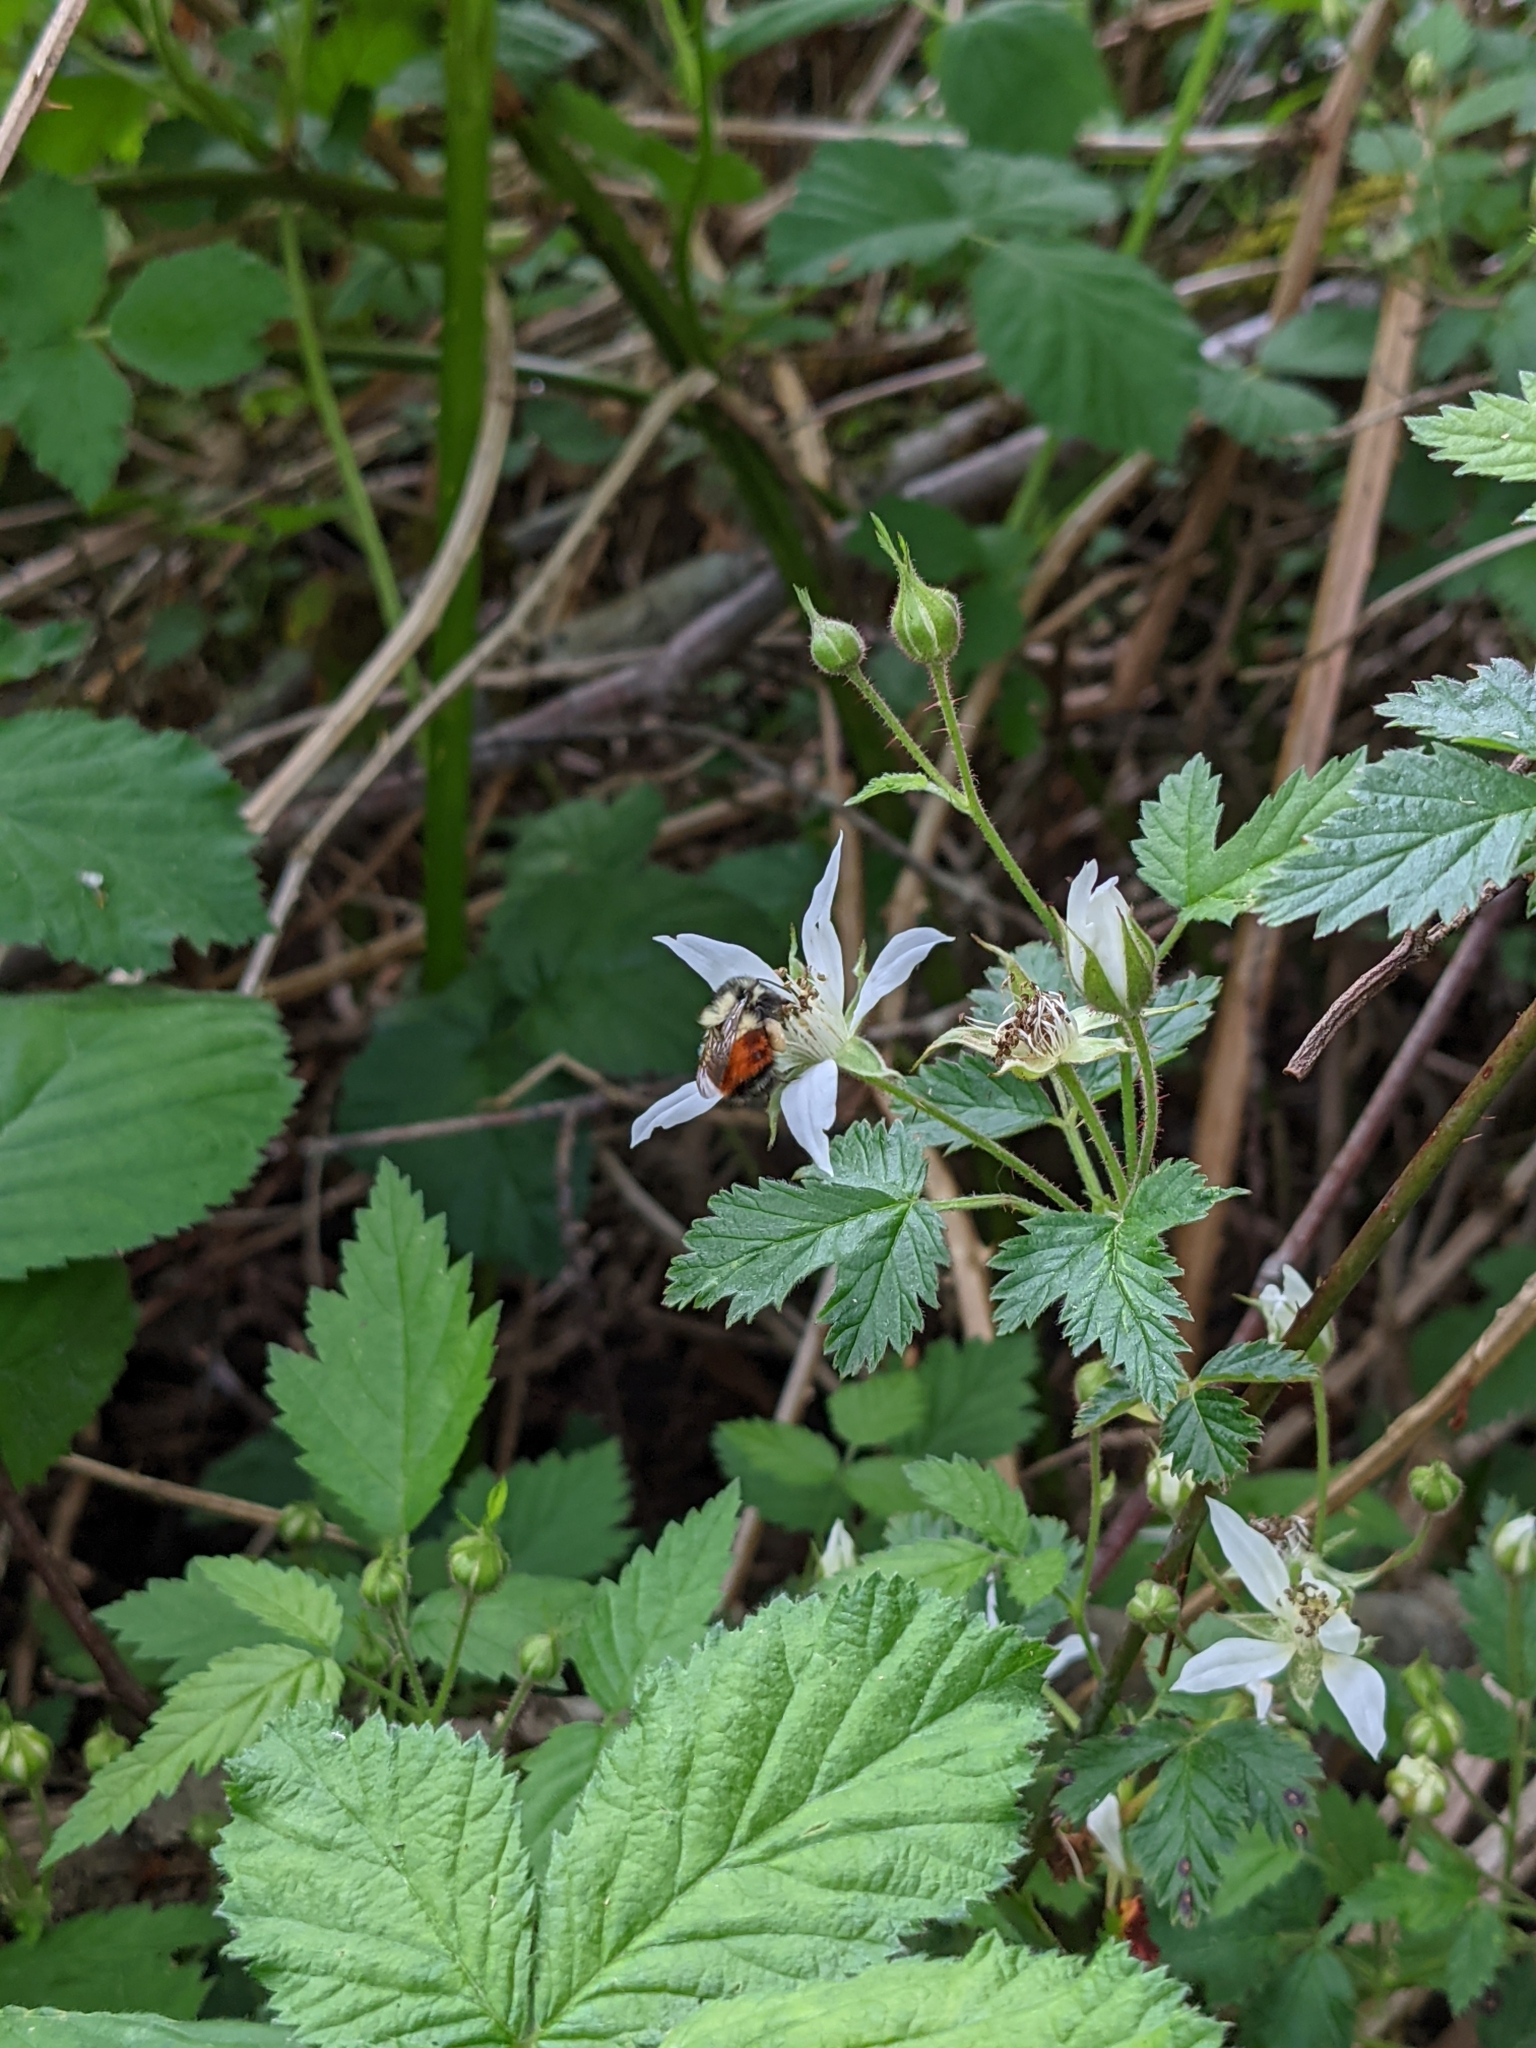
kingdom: Animalia
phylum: Arthropoda
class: Insecta
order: Hymenoptera
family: Apidae
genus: Bombus
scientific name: Bombus melanopygus
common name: Black tail bumble bee
